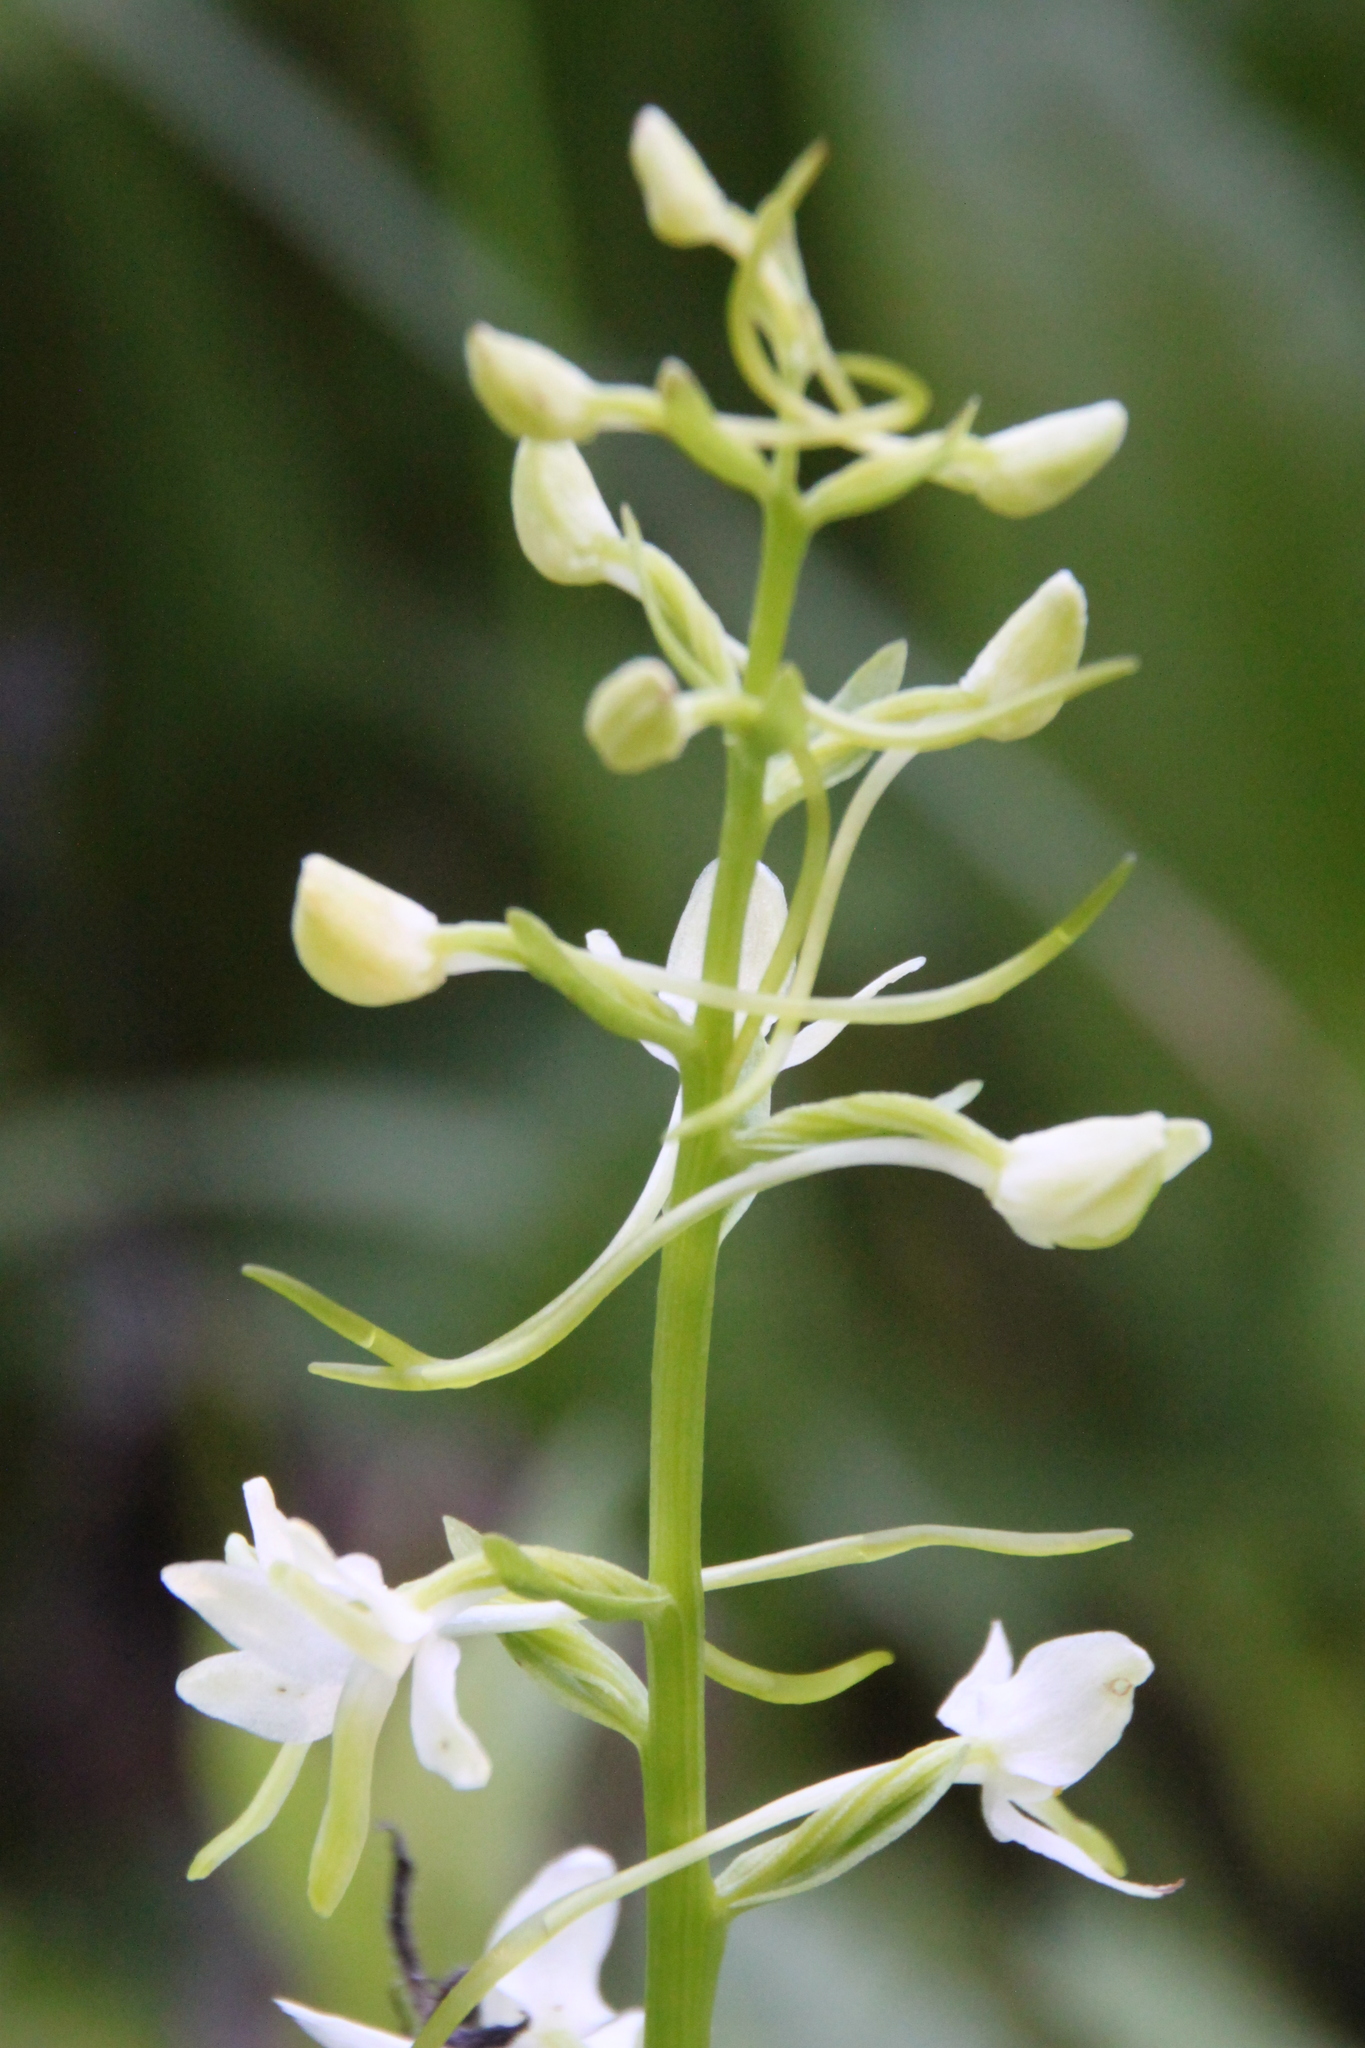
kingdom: Plantae
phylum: Tracheophyta
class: Liliopsida
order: Asparagales
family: Orchidaceae
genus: Platanthera
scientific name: Platanthera bifolia
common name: Lesser butterfly-orchid
